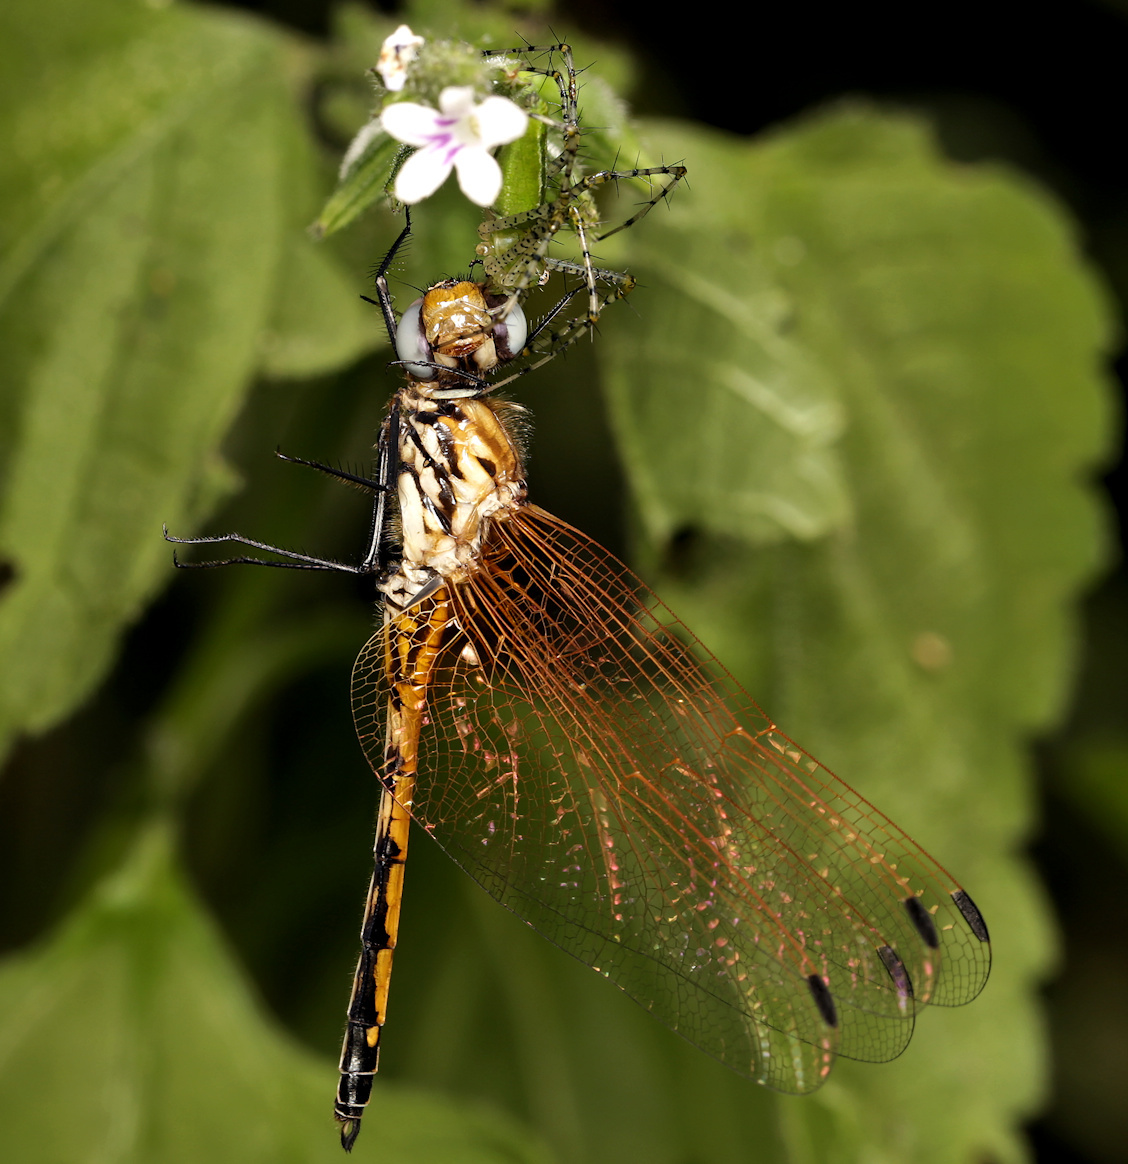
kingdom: Animalia
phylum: Arthropoda
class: Arachnida
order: Araneae
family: Oxyopidae
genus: Peucetia
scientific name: Peucetia viridis
